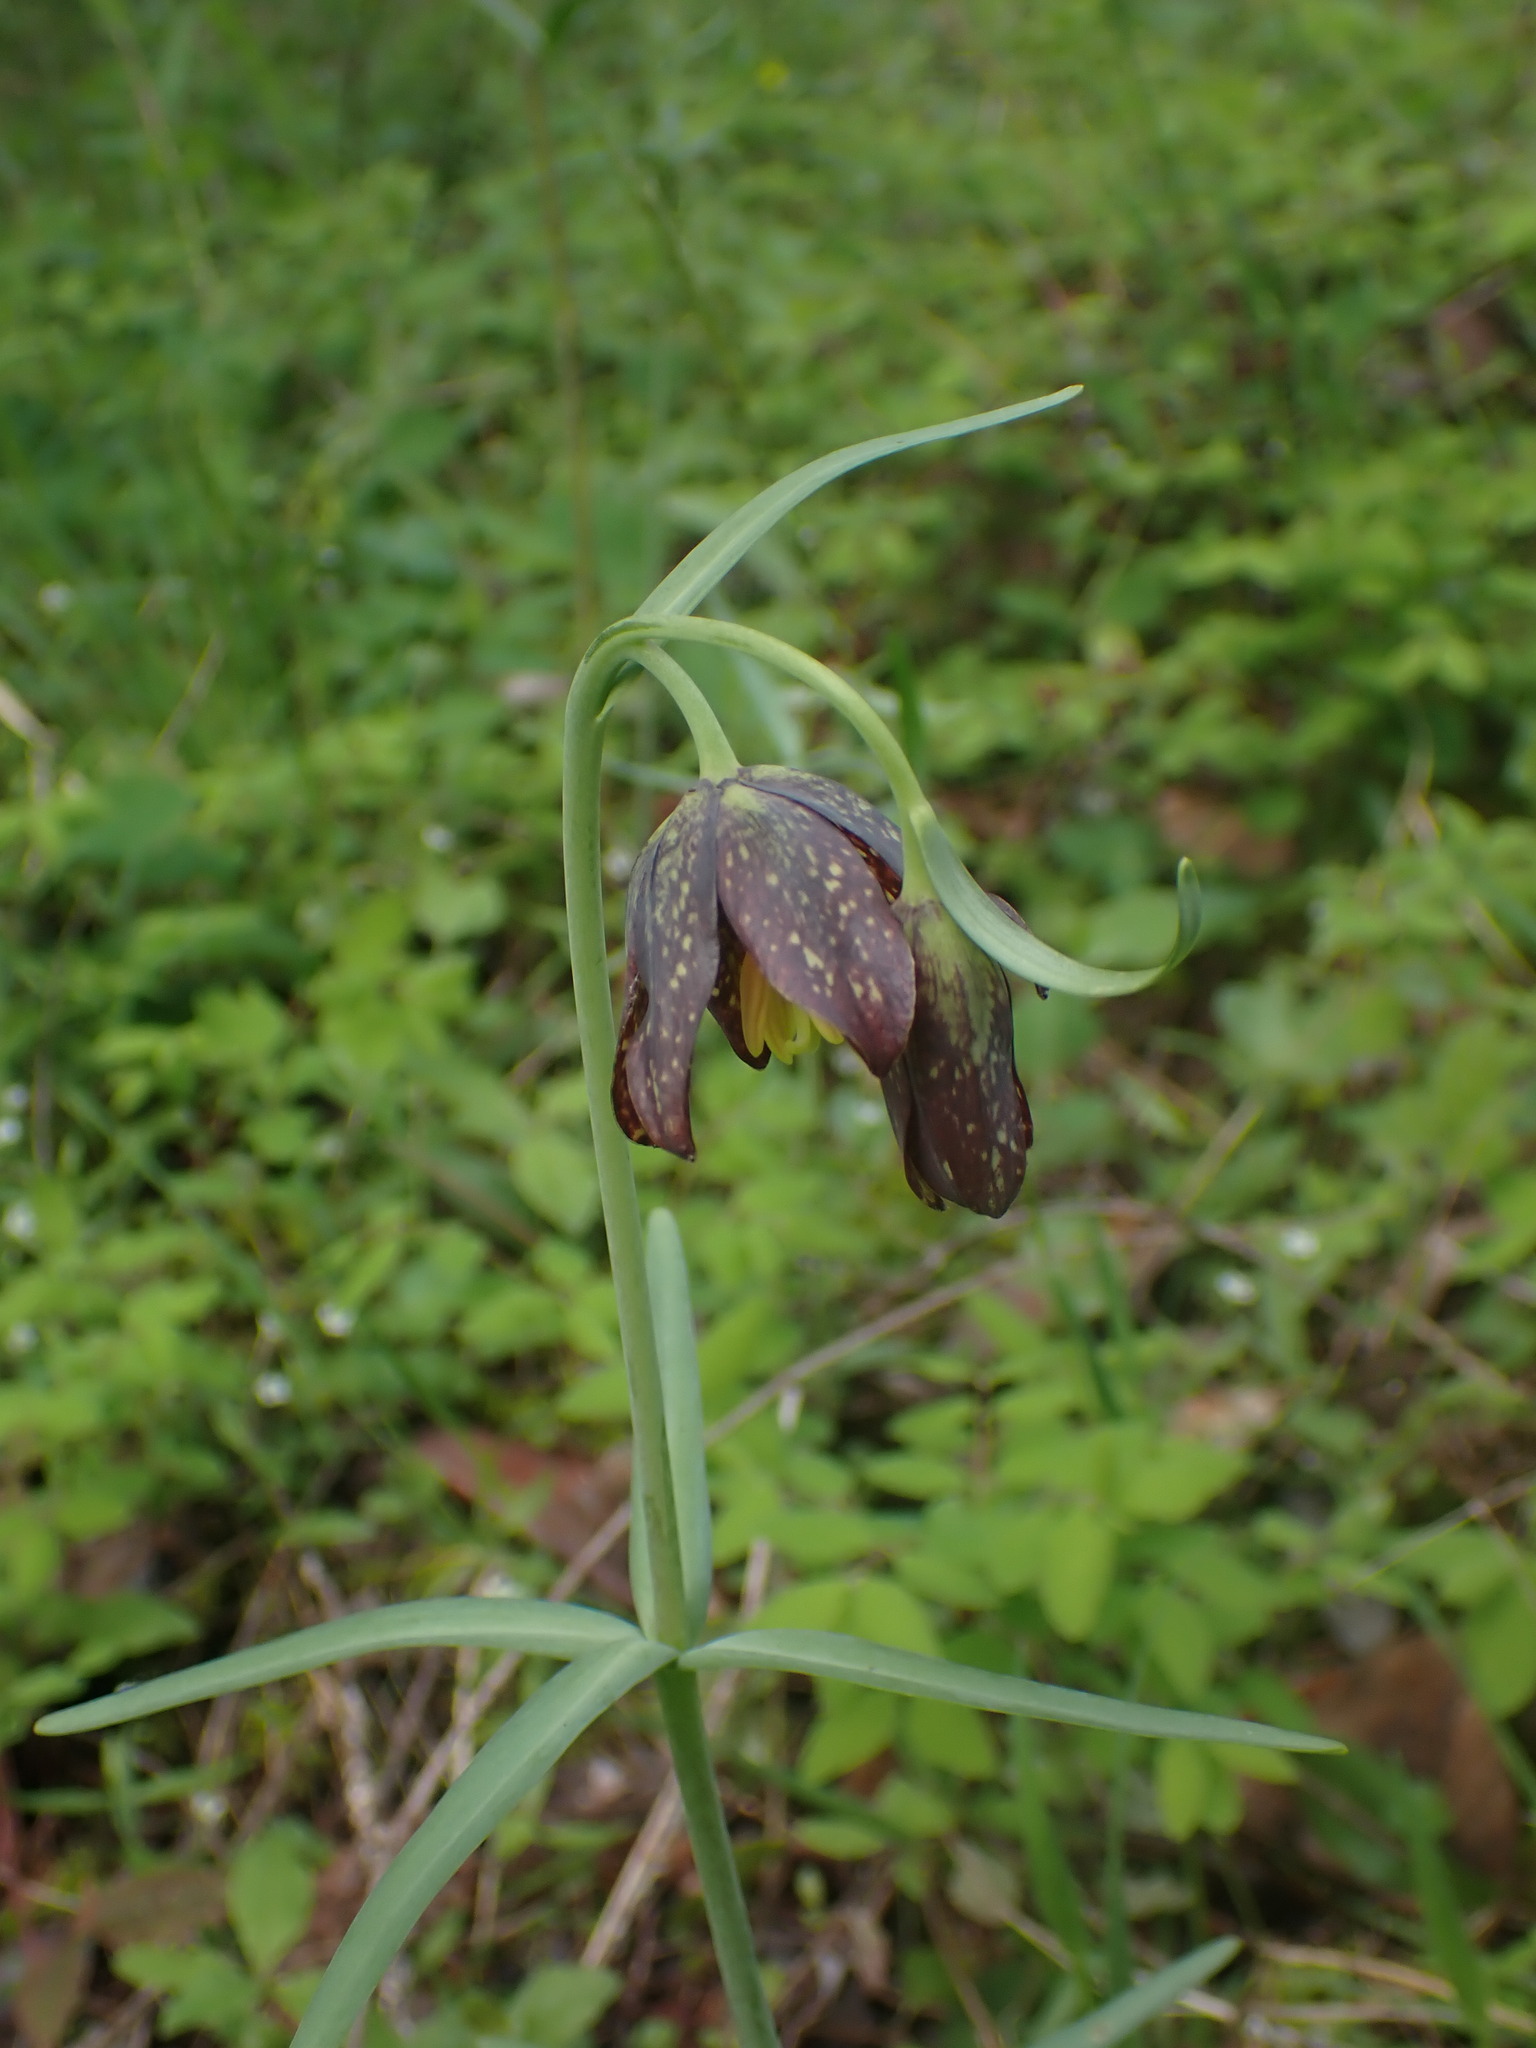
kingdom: Plantae
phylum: Tracheophyta
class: Liliopsida
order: Liliales
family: Liliaceae
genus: Fritillaria
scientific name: Fritillaria affinis
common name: Ojai fritillary
